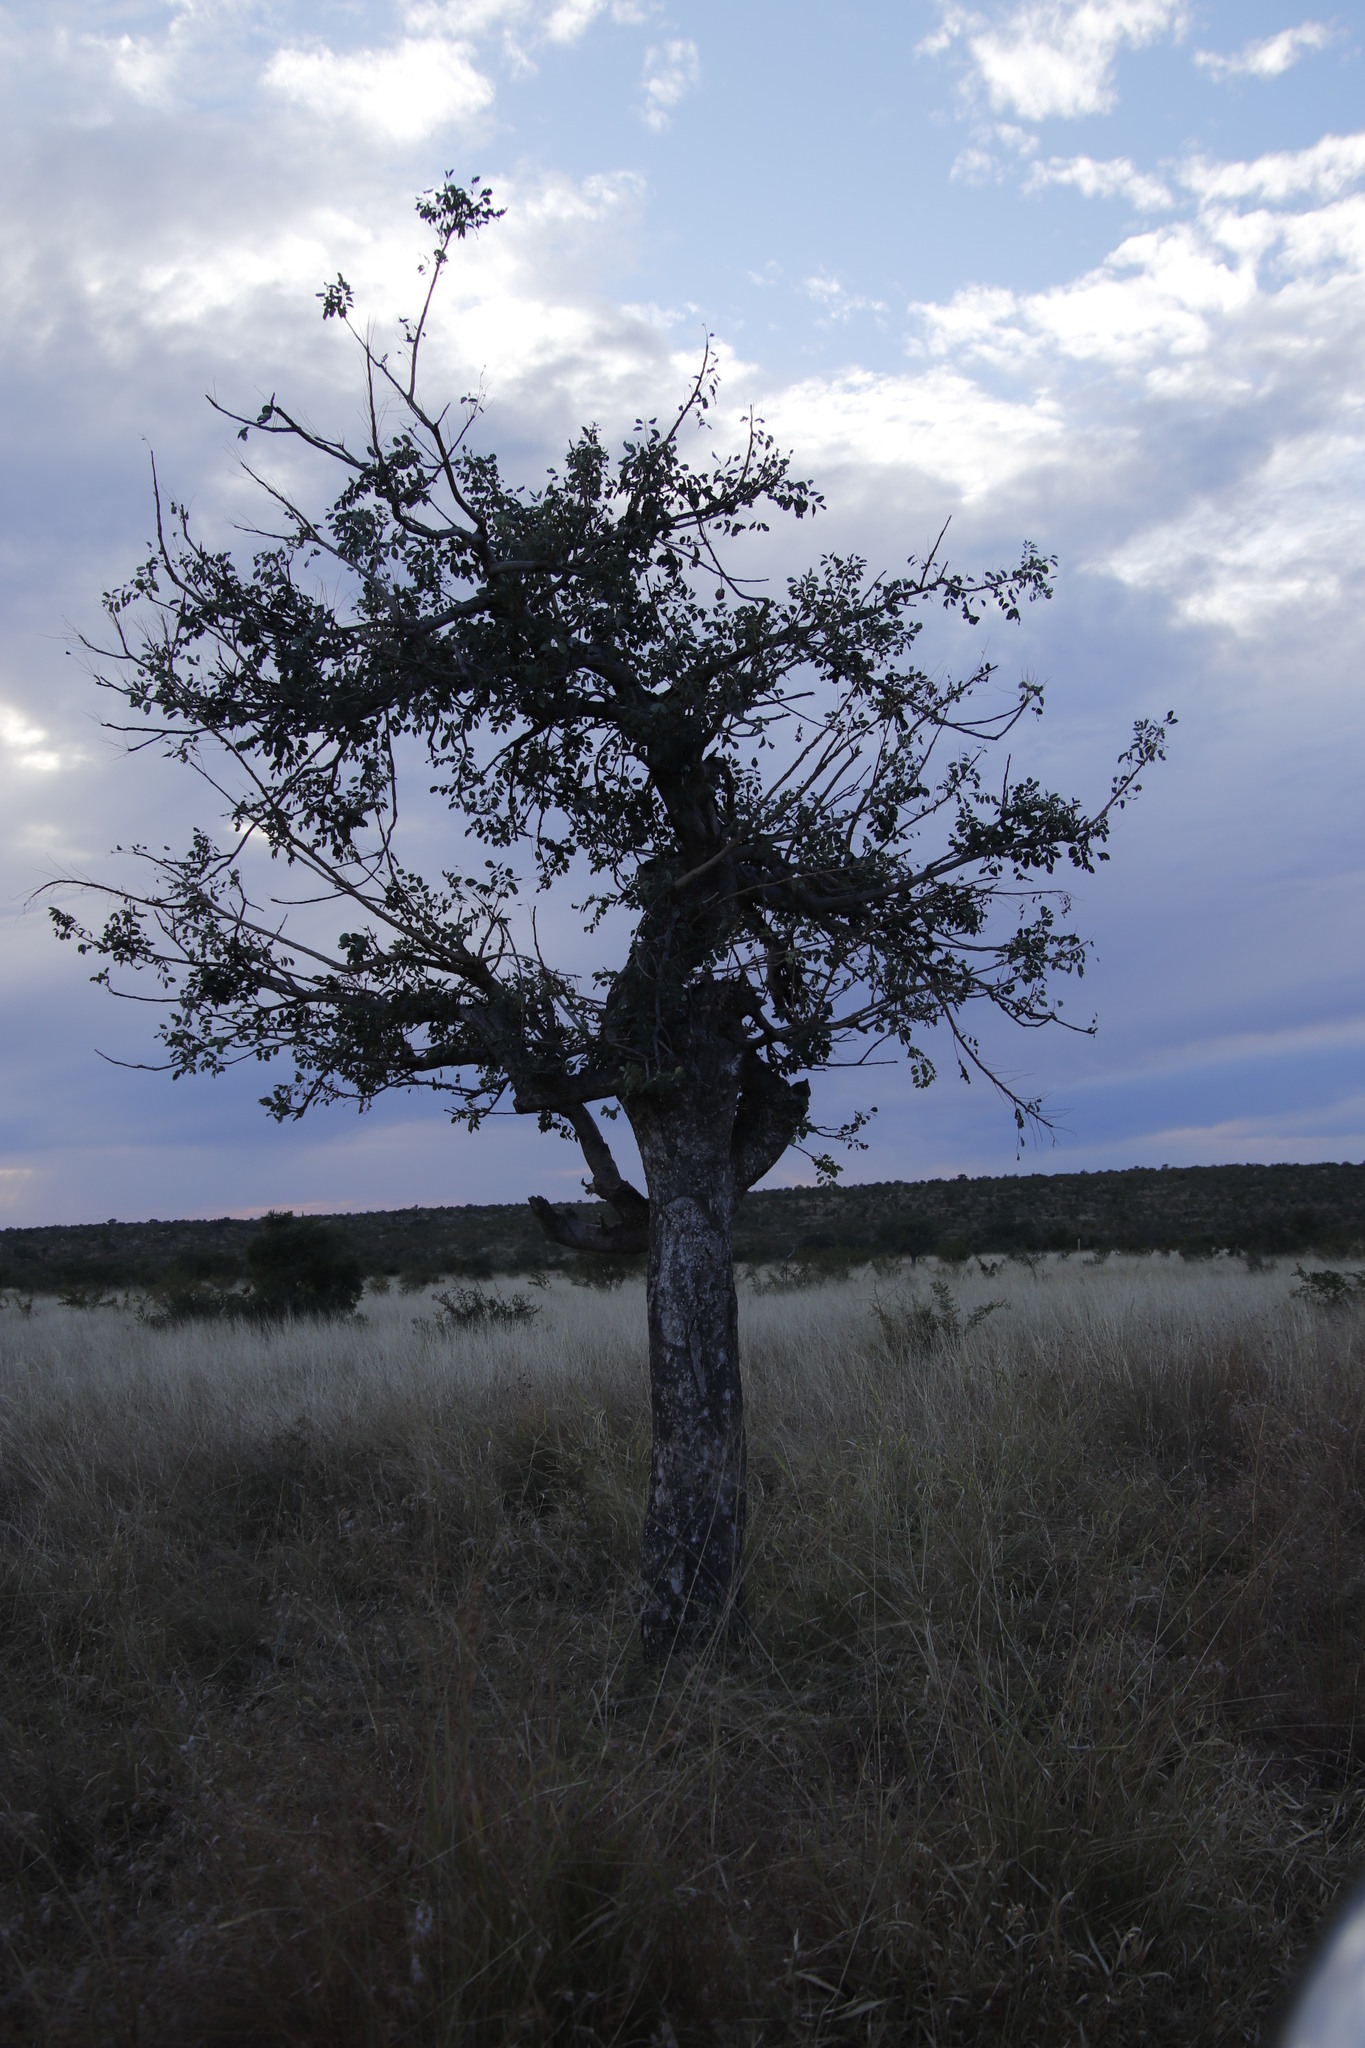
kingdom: Plantae
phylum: Tracheophyta
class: Magnoliopsida
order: Sapindales
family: Anacardiaceae
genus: Sclerocarya
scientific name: Sclerocarya birrea
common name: Marula
